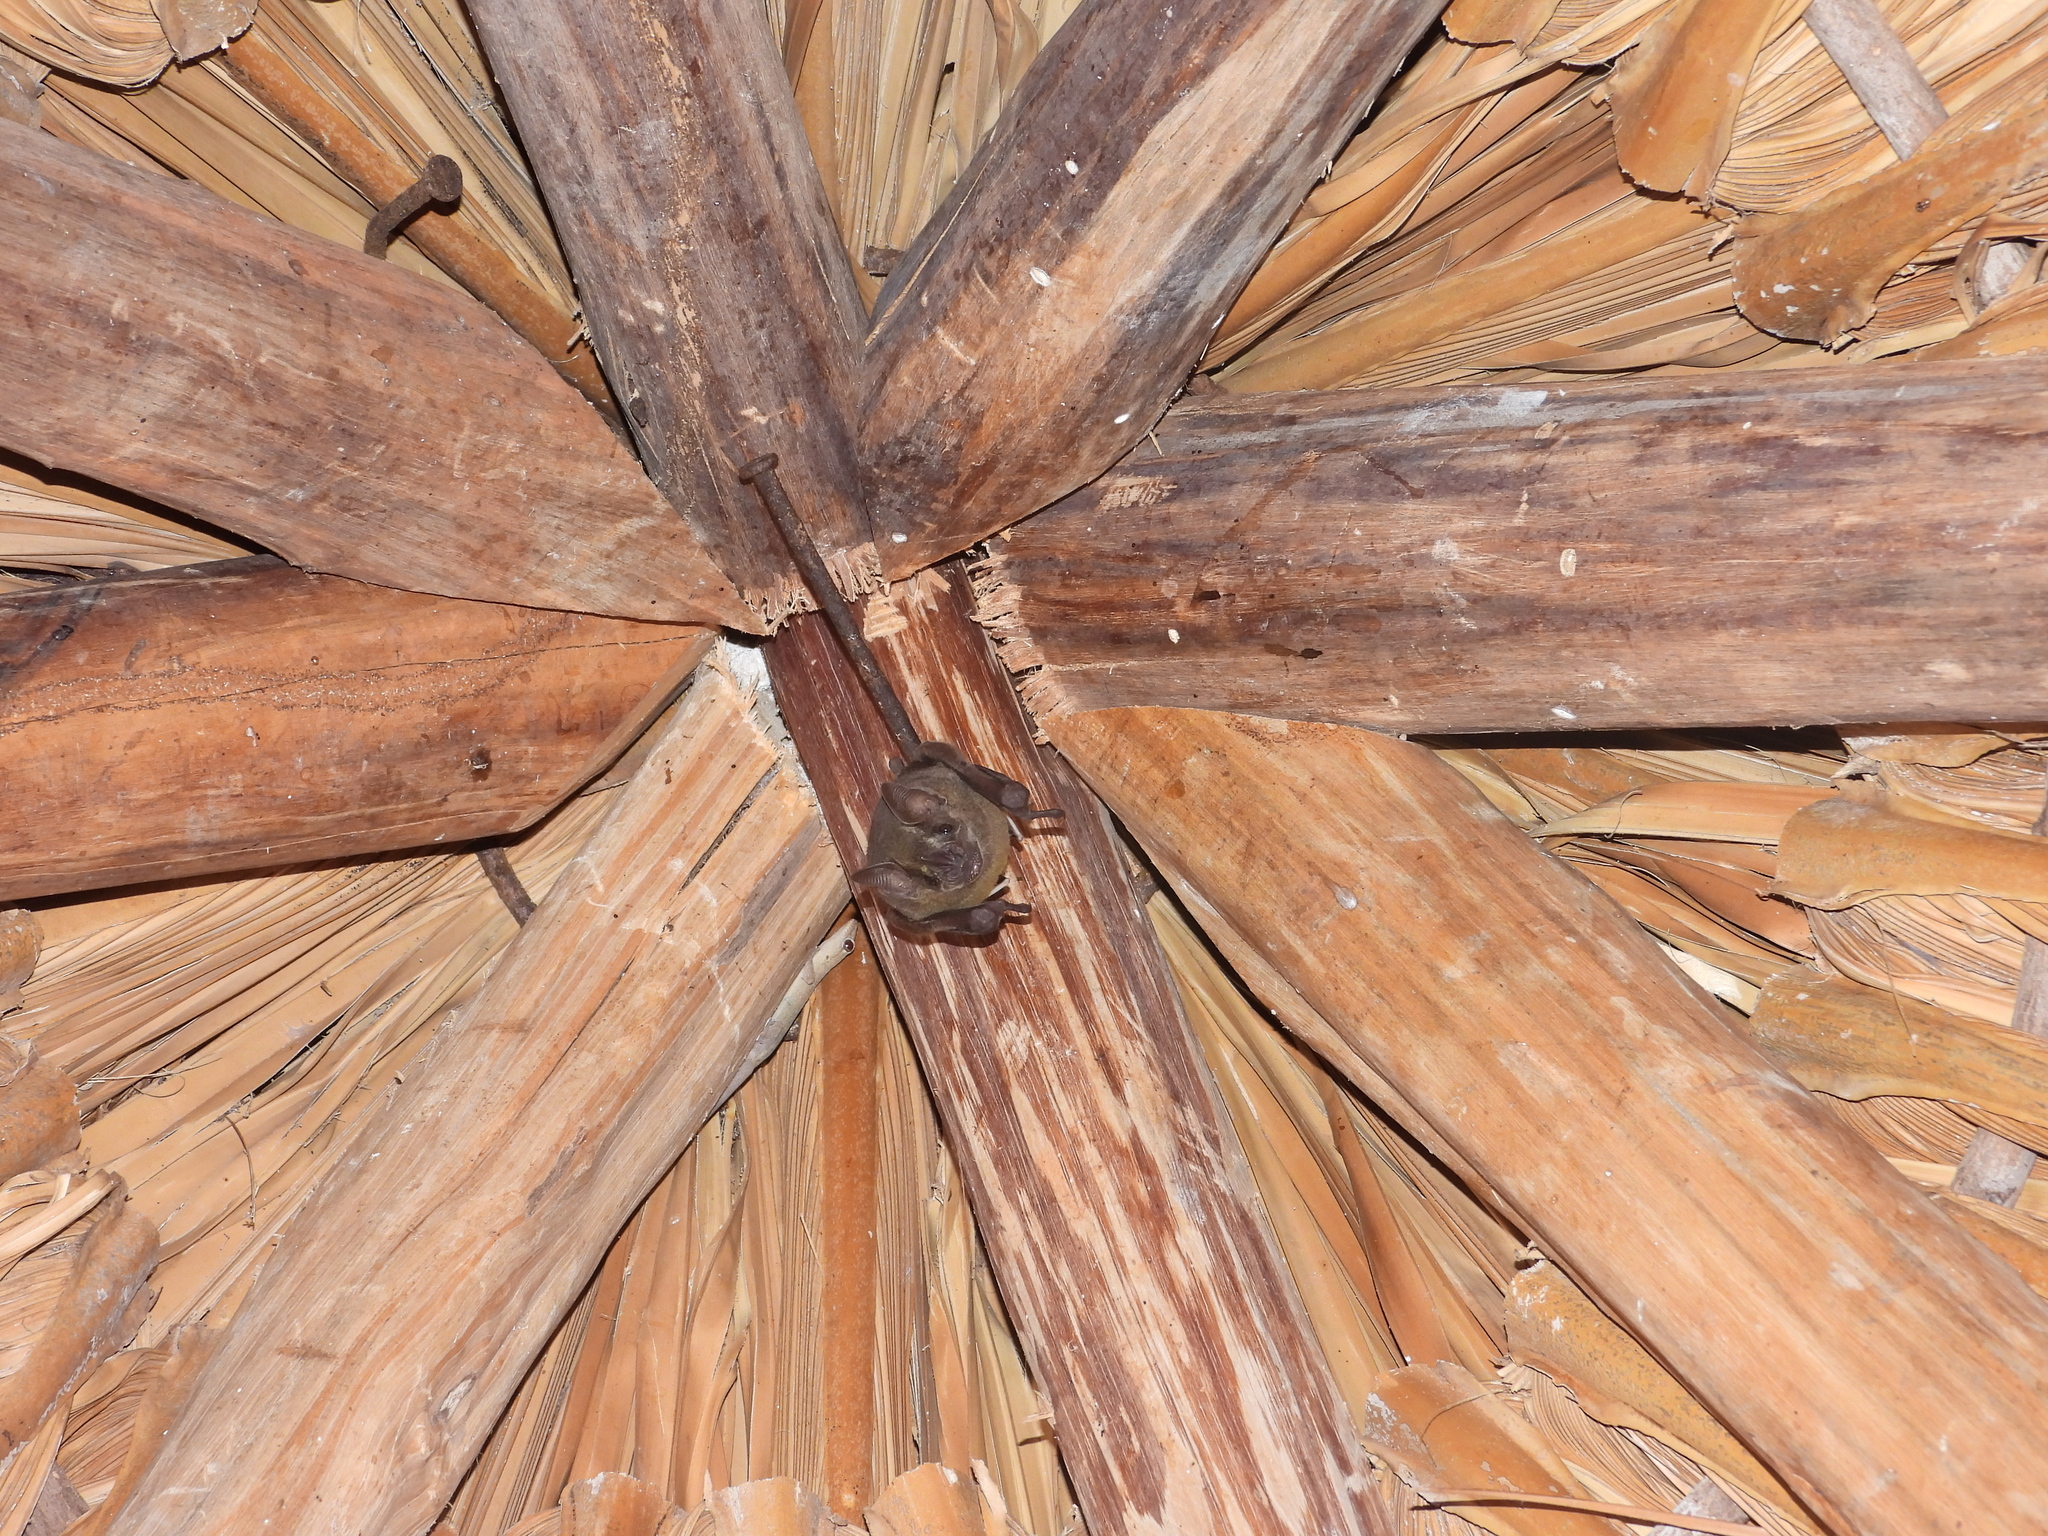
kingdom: Animalia
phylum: Chordata
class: Mammalia
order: Chiroptera
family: Phyllostomidae
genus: Artibeus
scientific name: Artibeus jamaicensis
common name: Jamaican fruit-eating bat
